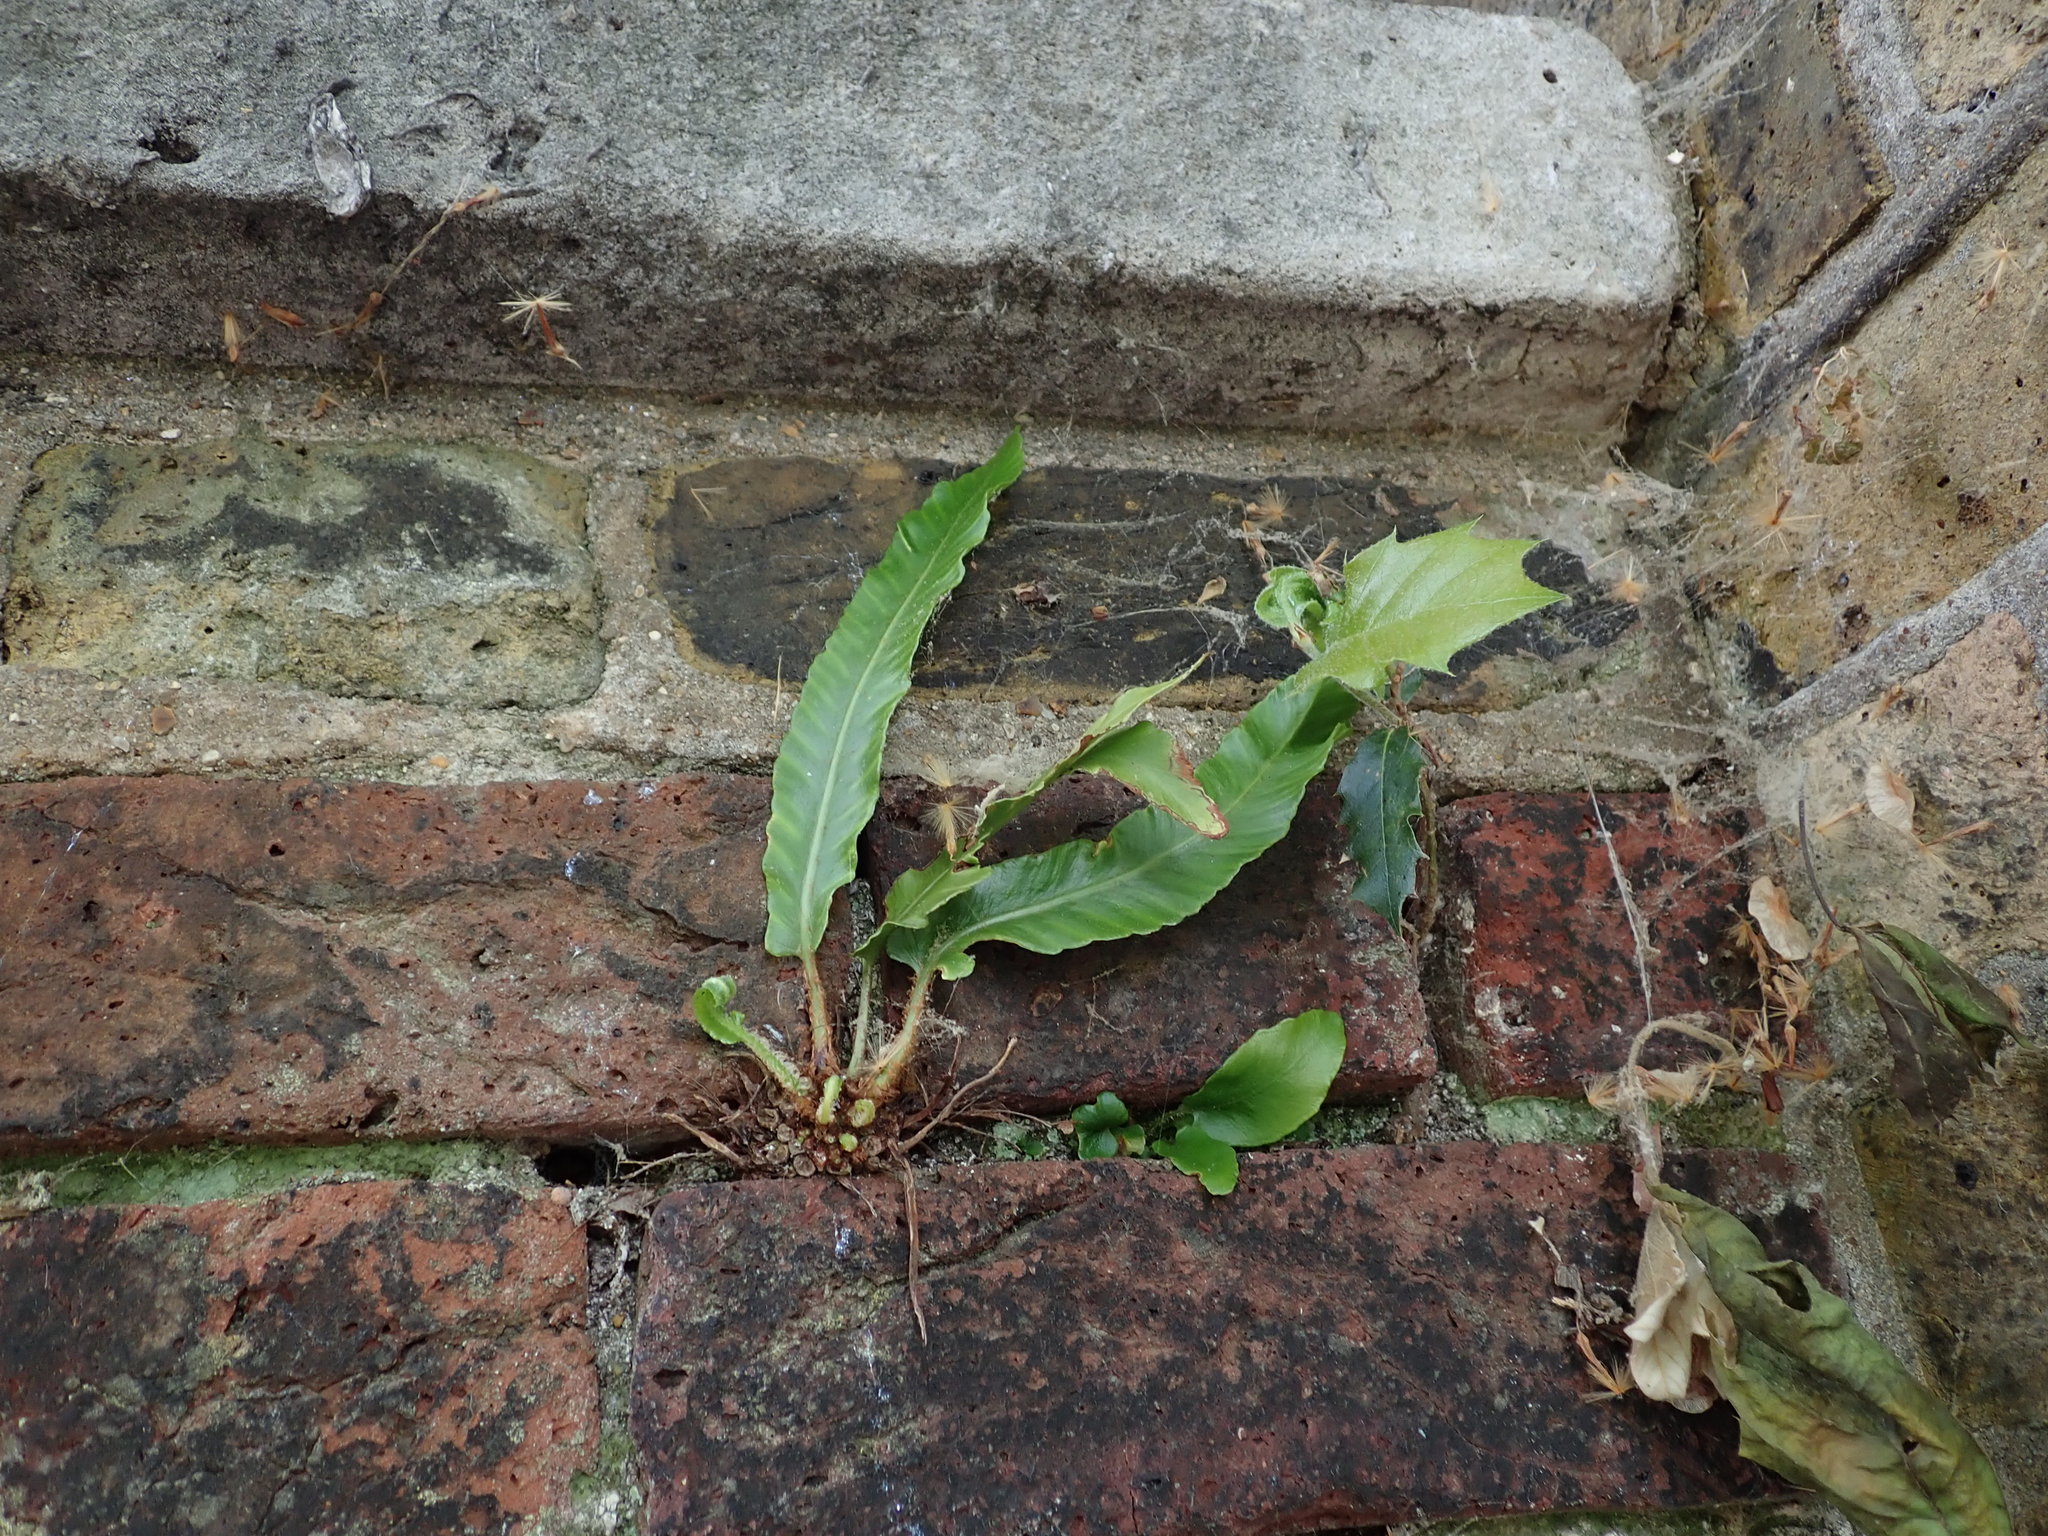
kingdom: Plantae
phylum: Tracheophyta
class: Polypodiopsida
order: Polypodiales
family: Aspleniaceae
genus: Asplenium
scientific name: Asplenium scolopendrium
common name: Hart's-tongue fern
